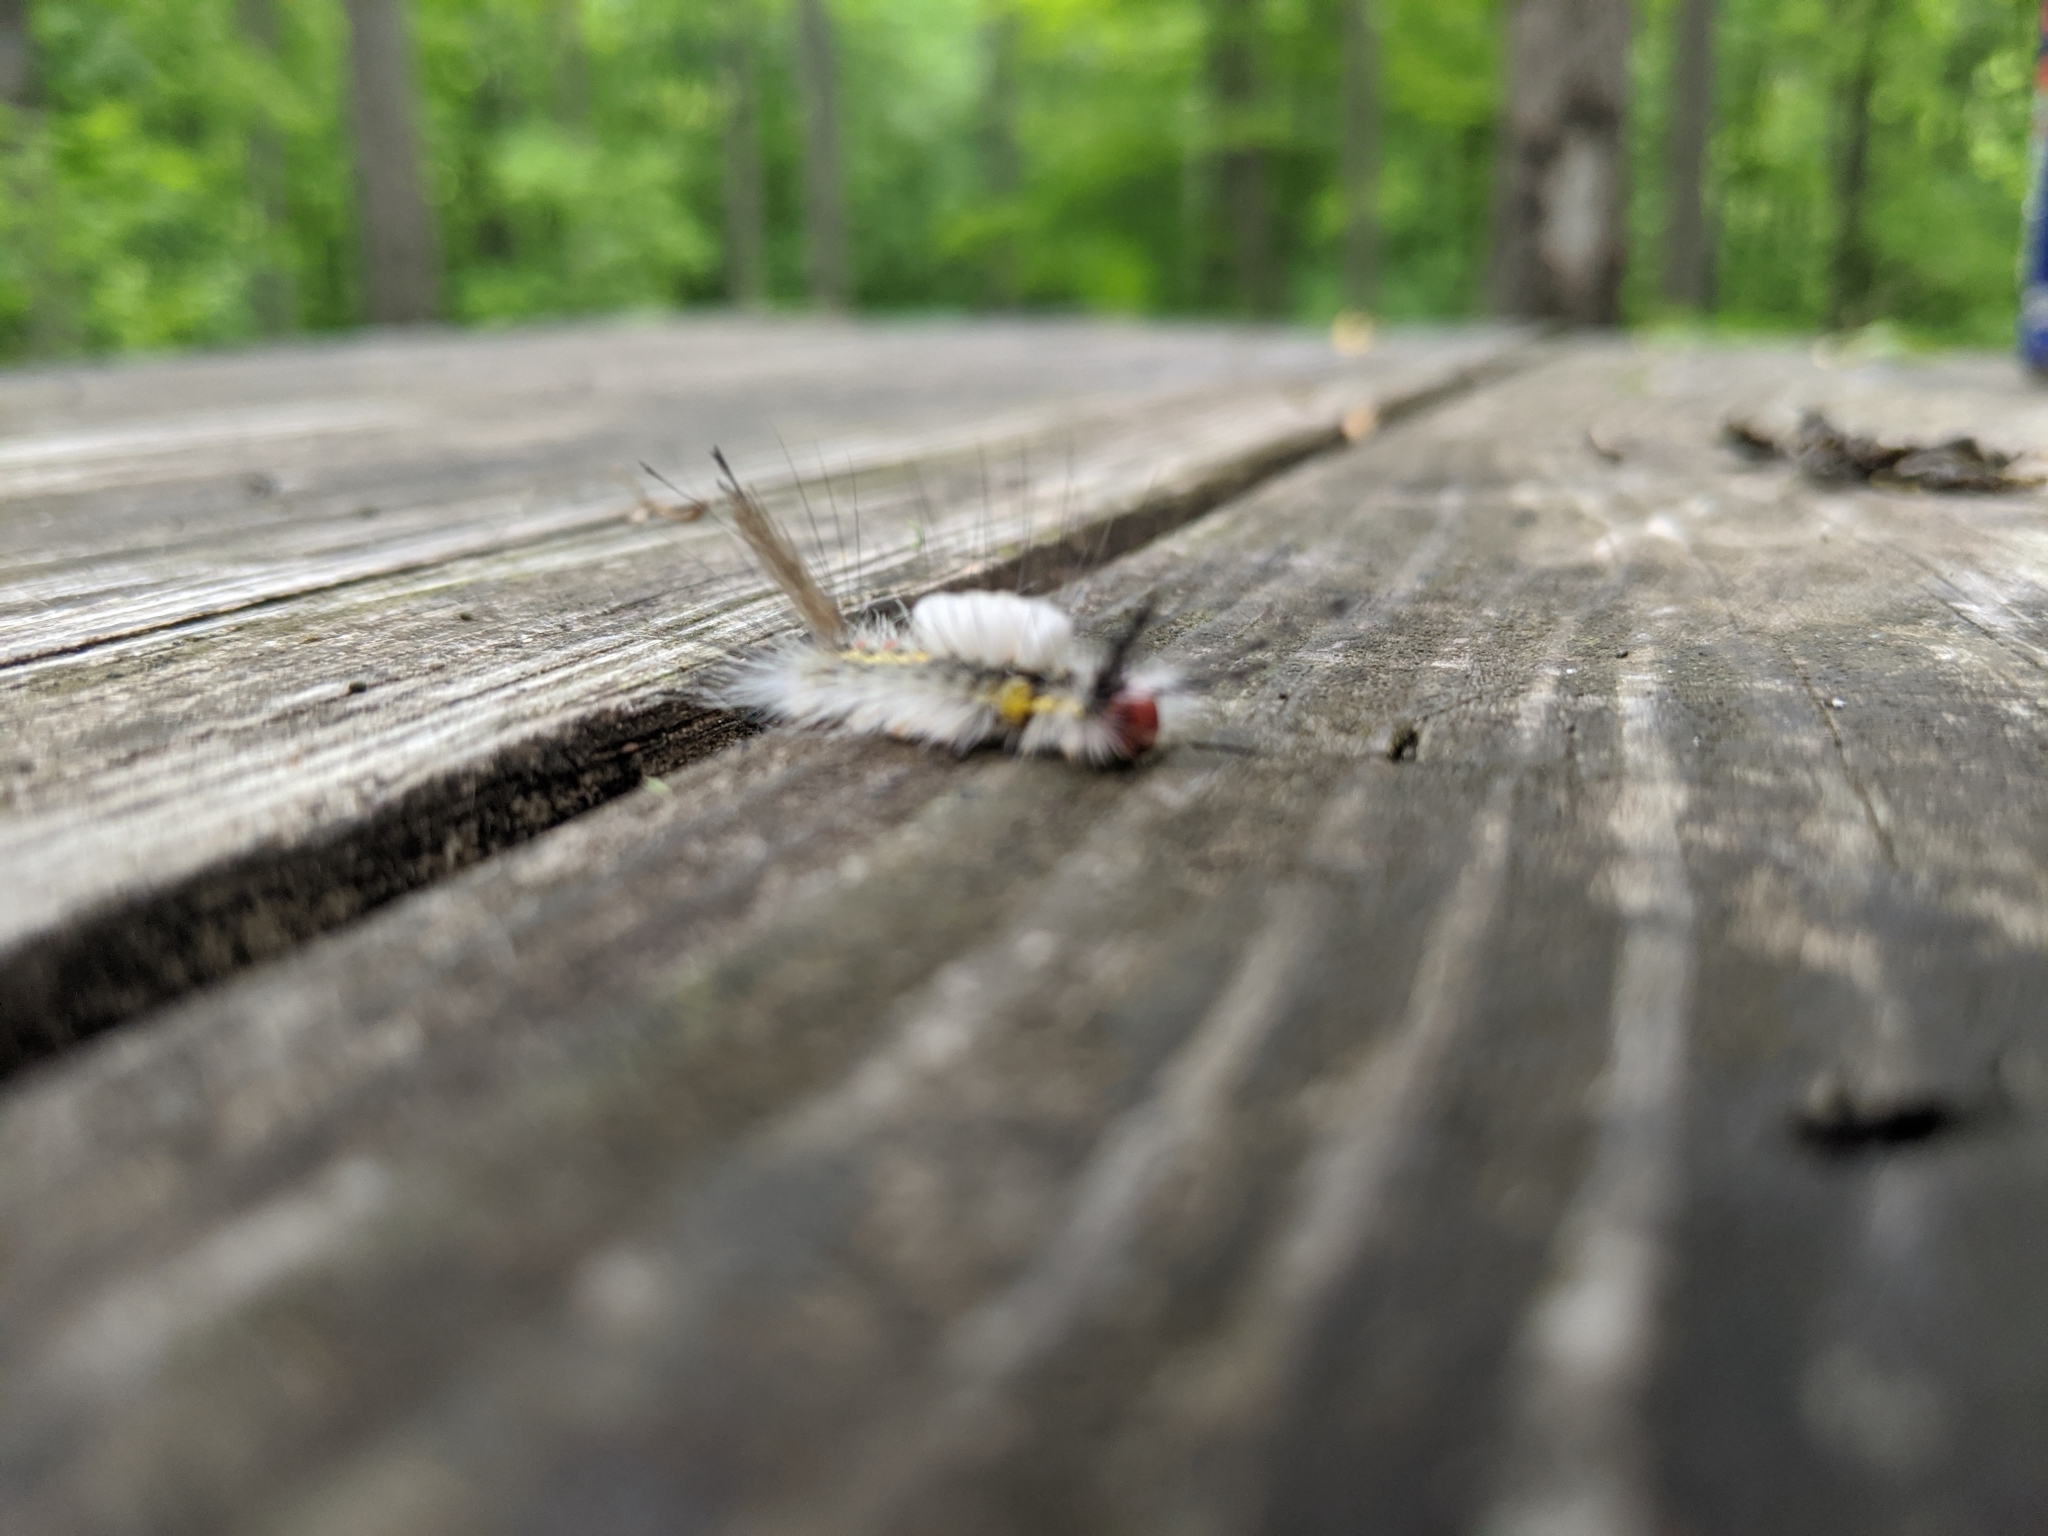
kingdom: Animalia
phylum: Arthropoda
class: Insecta
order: Lepidoptera
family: Erebidae
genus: Orgyia
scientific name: Orgyia leucostigma
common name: White-marked tussock moth
